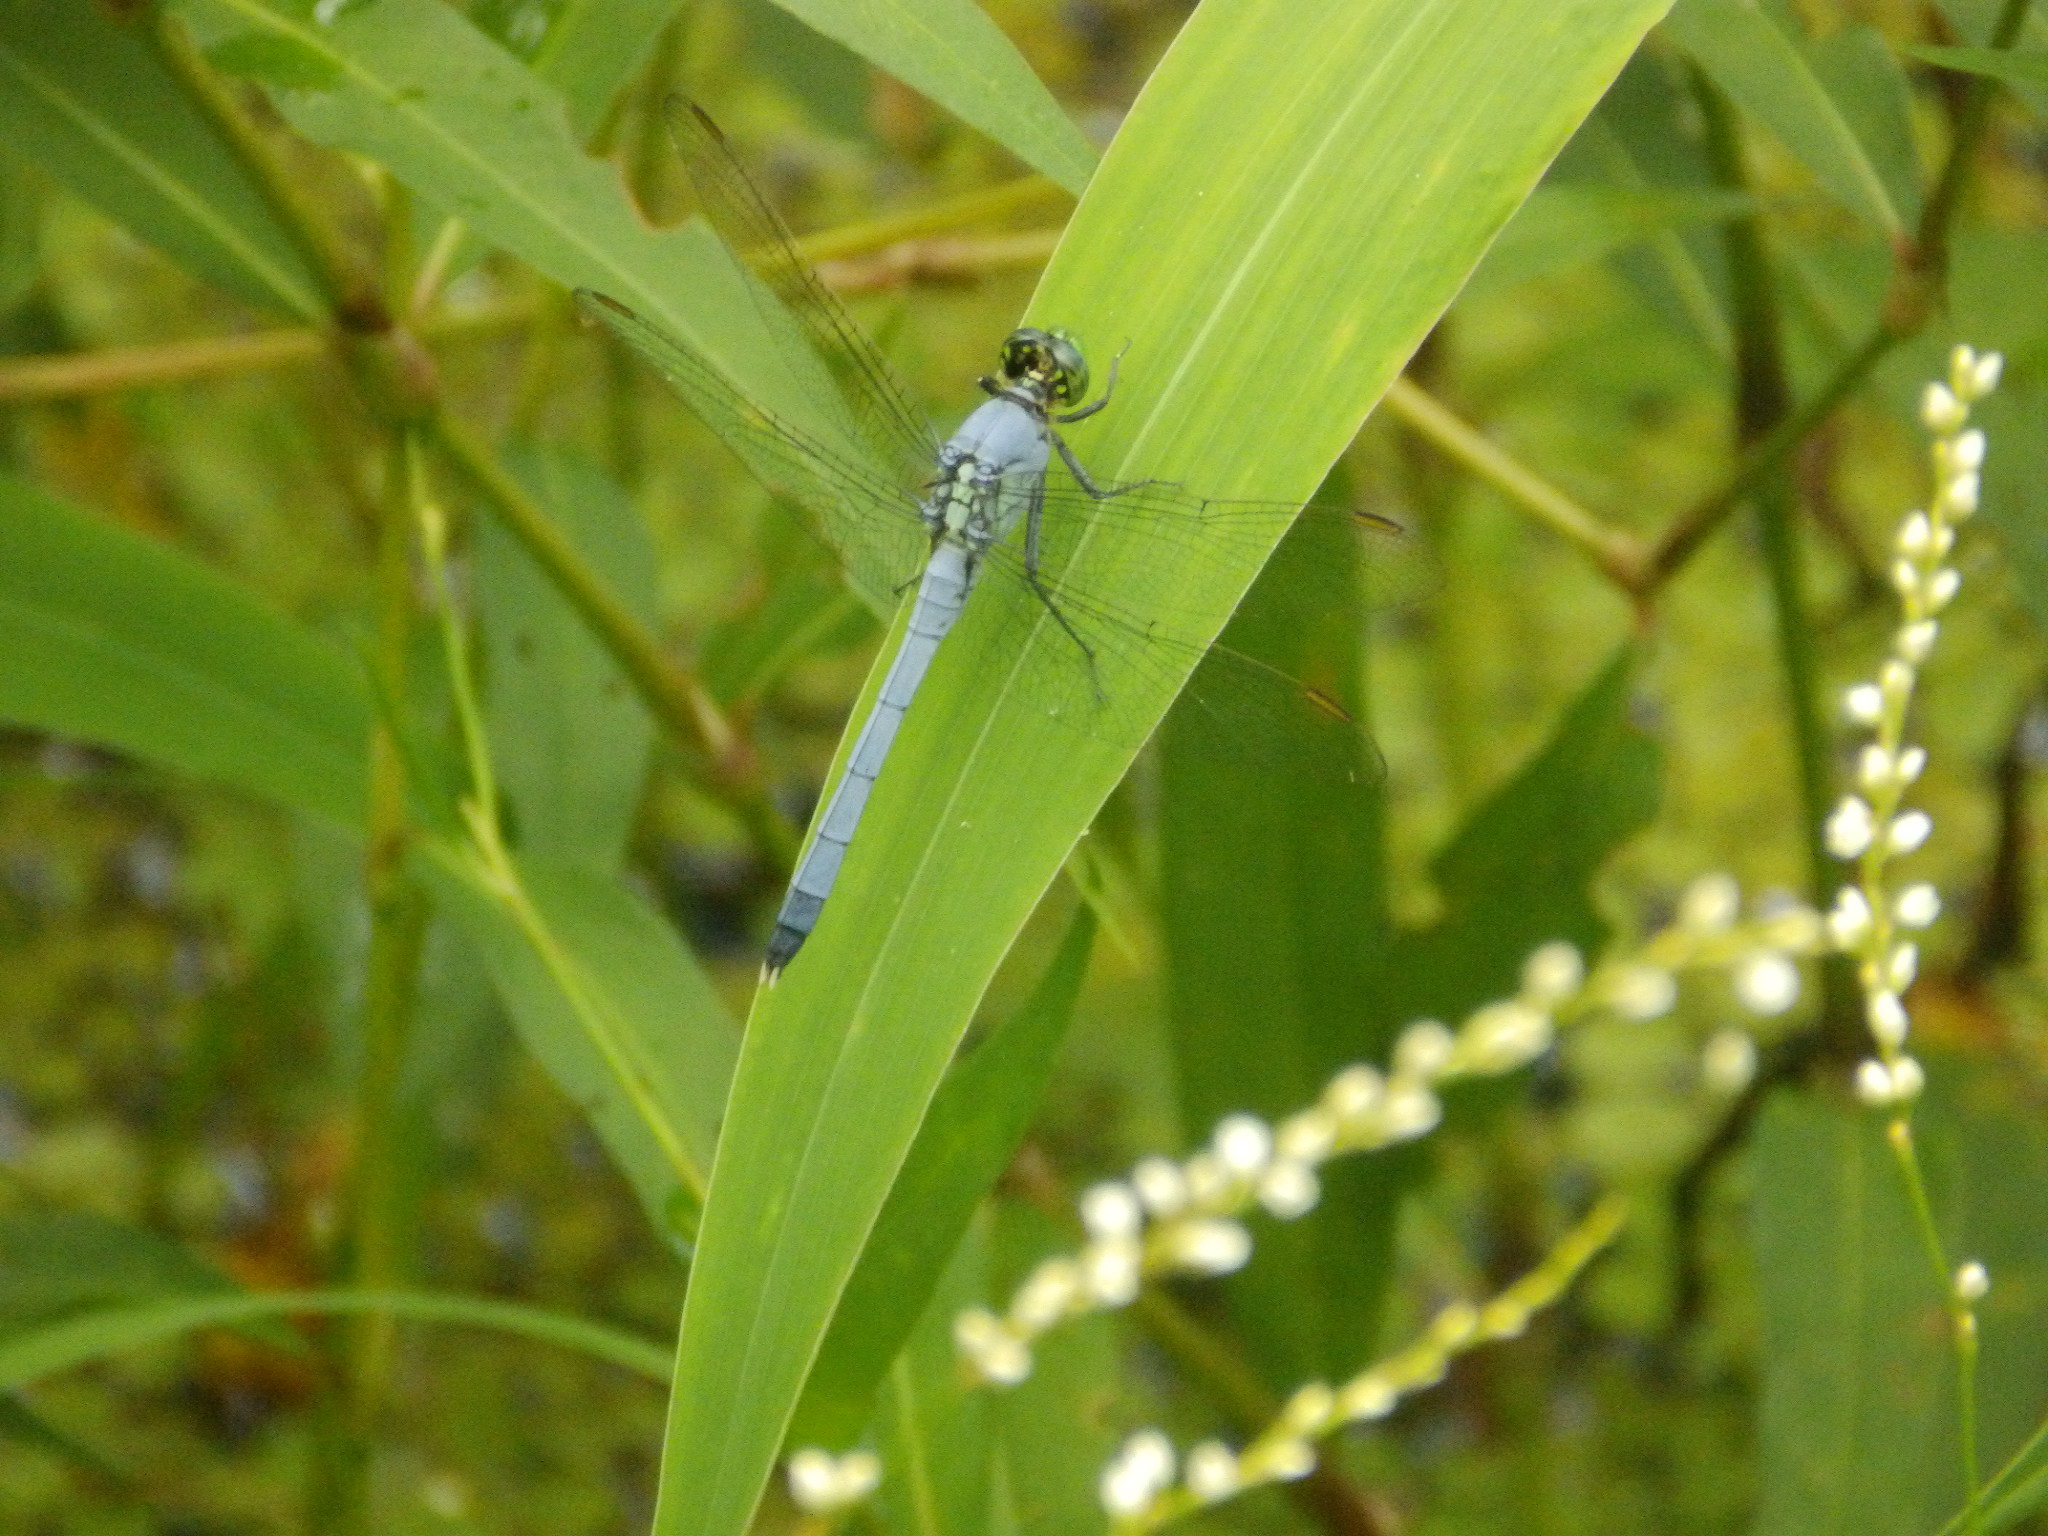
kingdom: Animalia
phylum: Arthropoda
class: Insecta
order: Odonata
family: Libellulidae
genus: Erythemis
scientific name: Erythemis simplicicollis
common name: Eastern pondhawk
